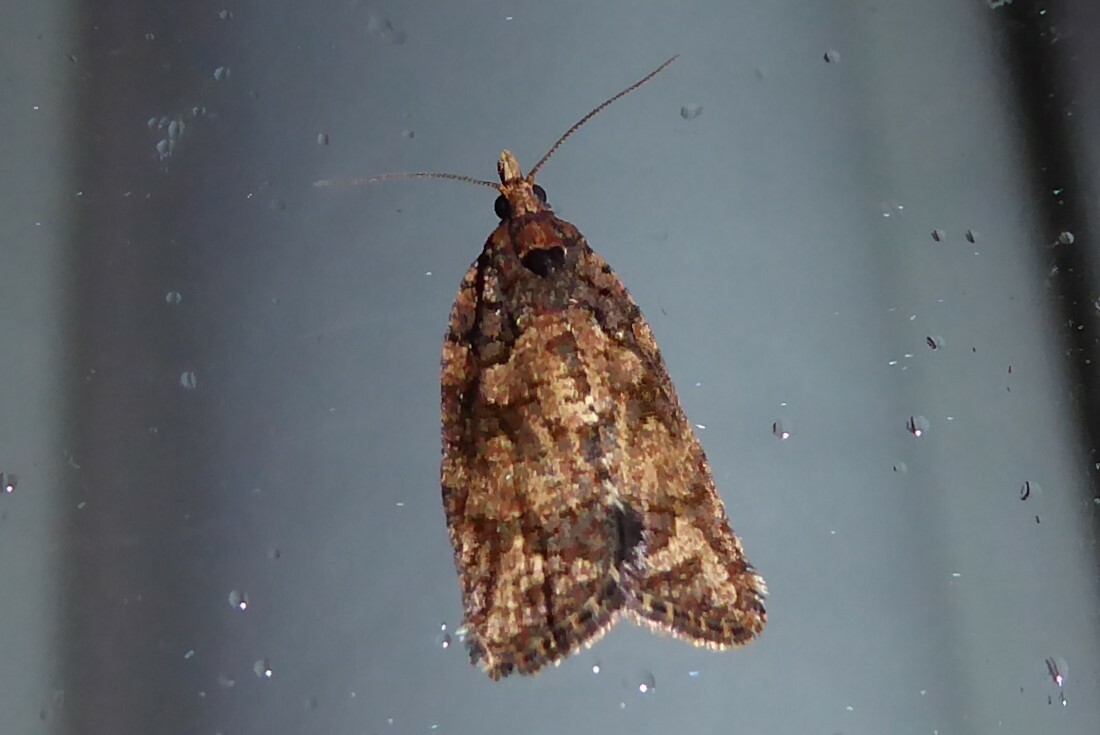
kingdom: Animalia
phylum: Arthropoda
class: Insecta
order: Lepidoptera
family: Tortricidae
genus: Capua
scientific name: Capua intractana
